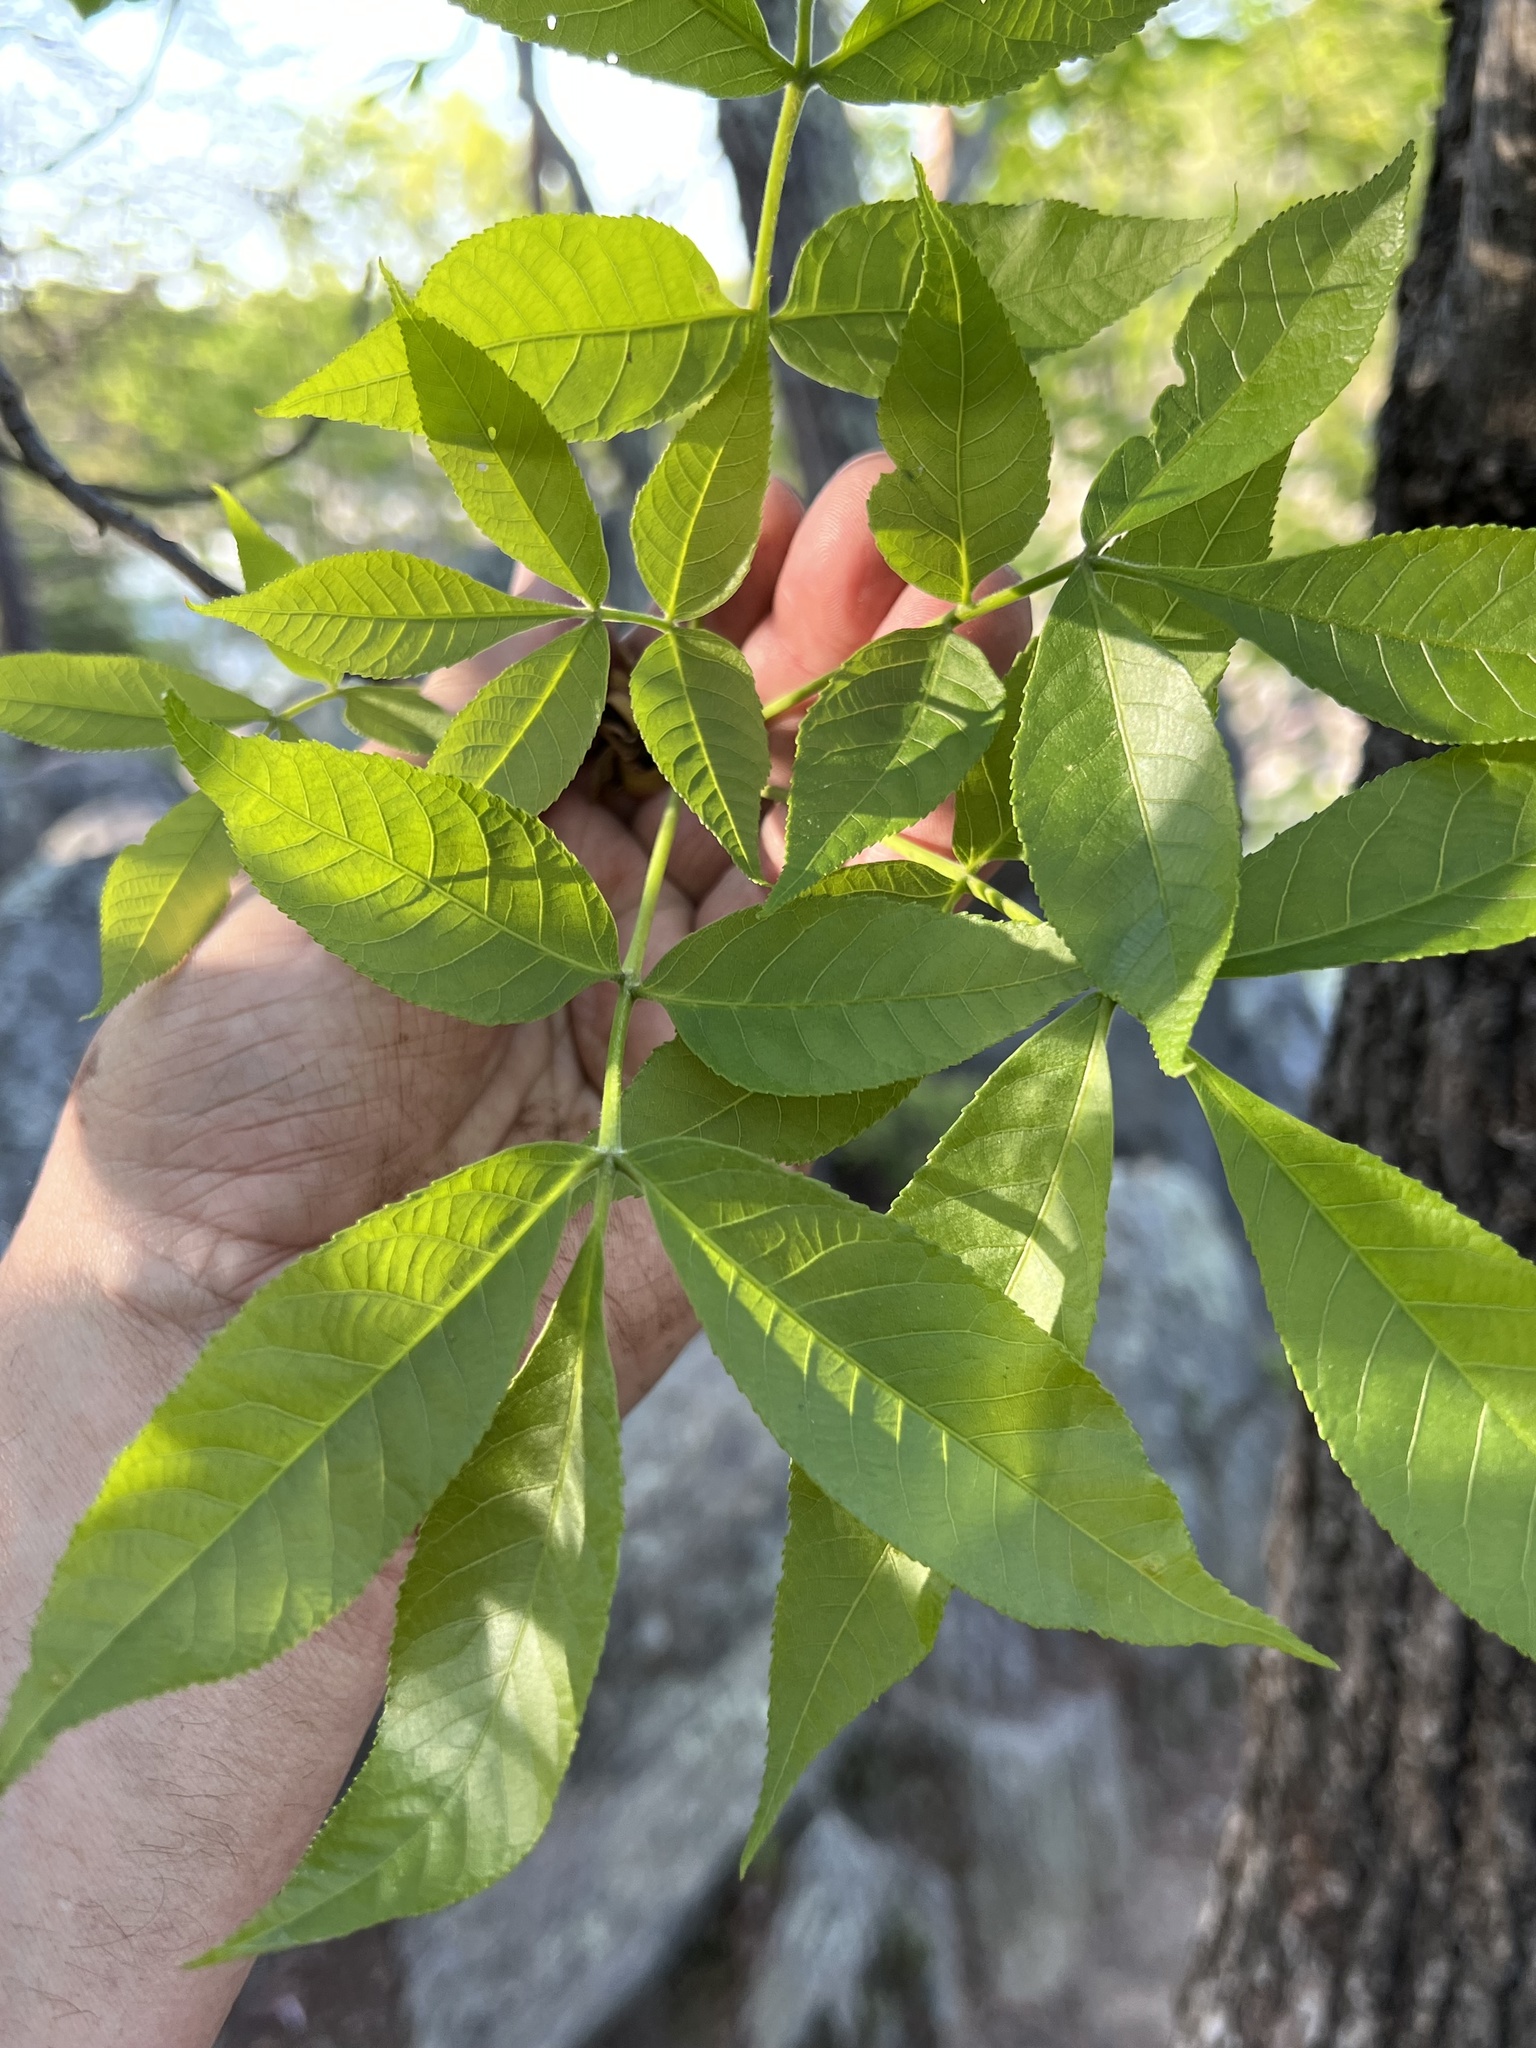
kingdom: Plantae
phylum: Tracheophyta
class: Magnoliopsida
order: Fagales
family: Juglandaceae
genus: Carya
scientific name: Carya glabra
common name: Pignut hickory
